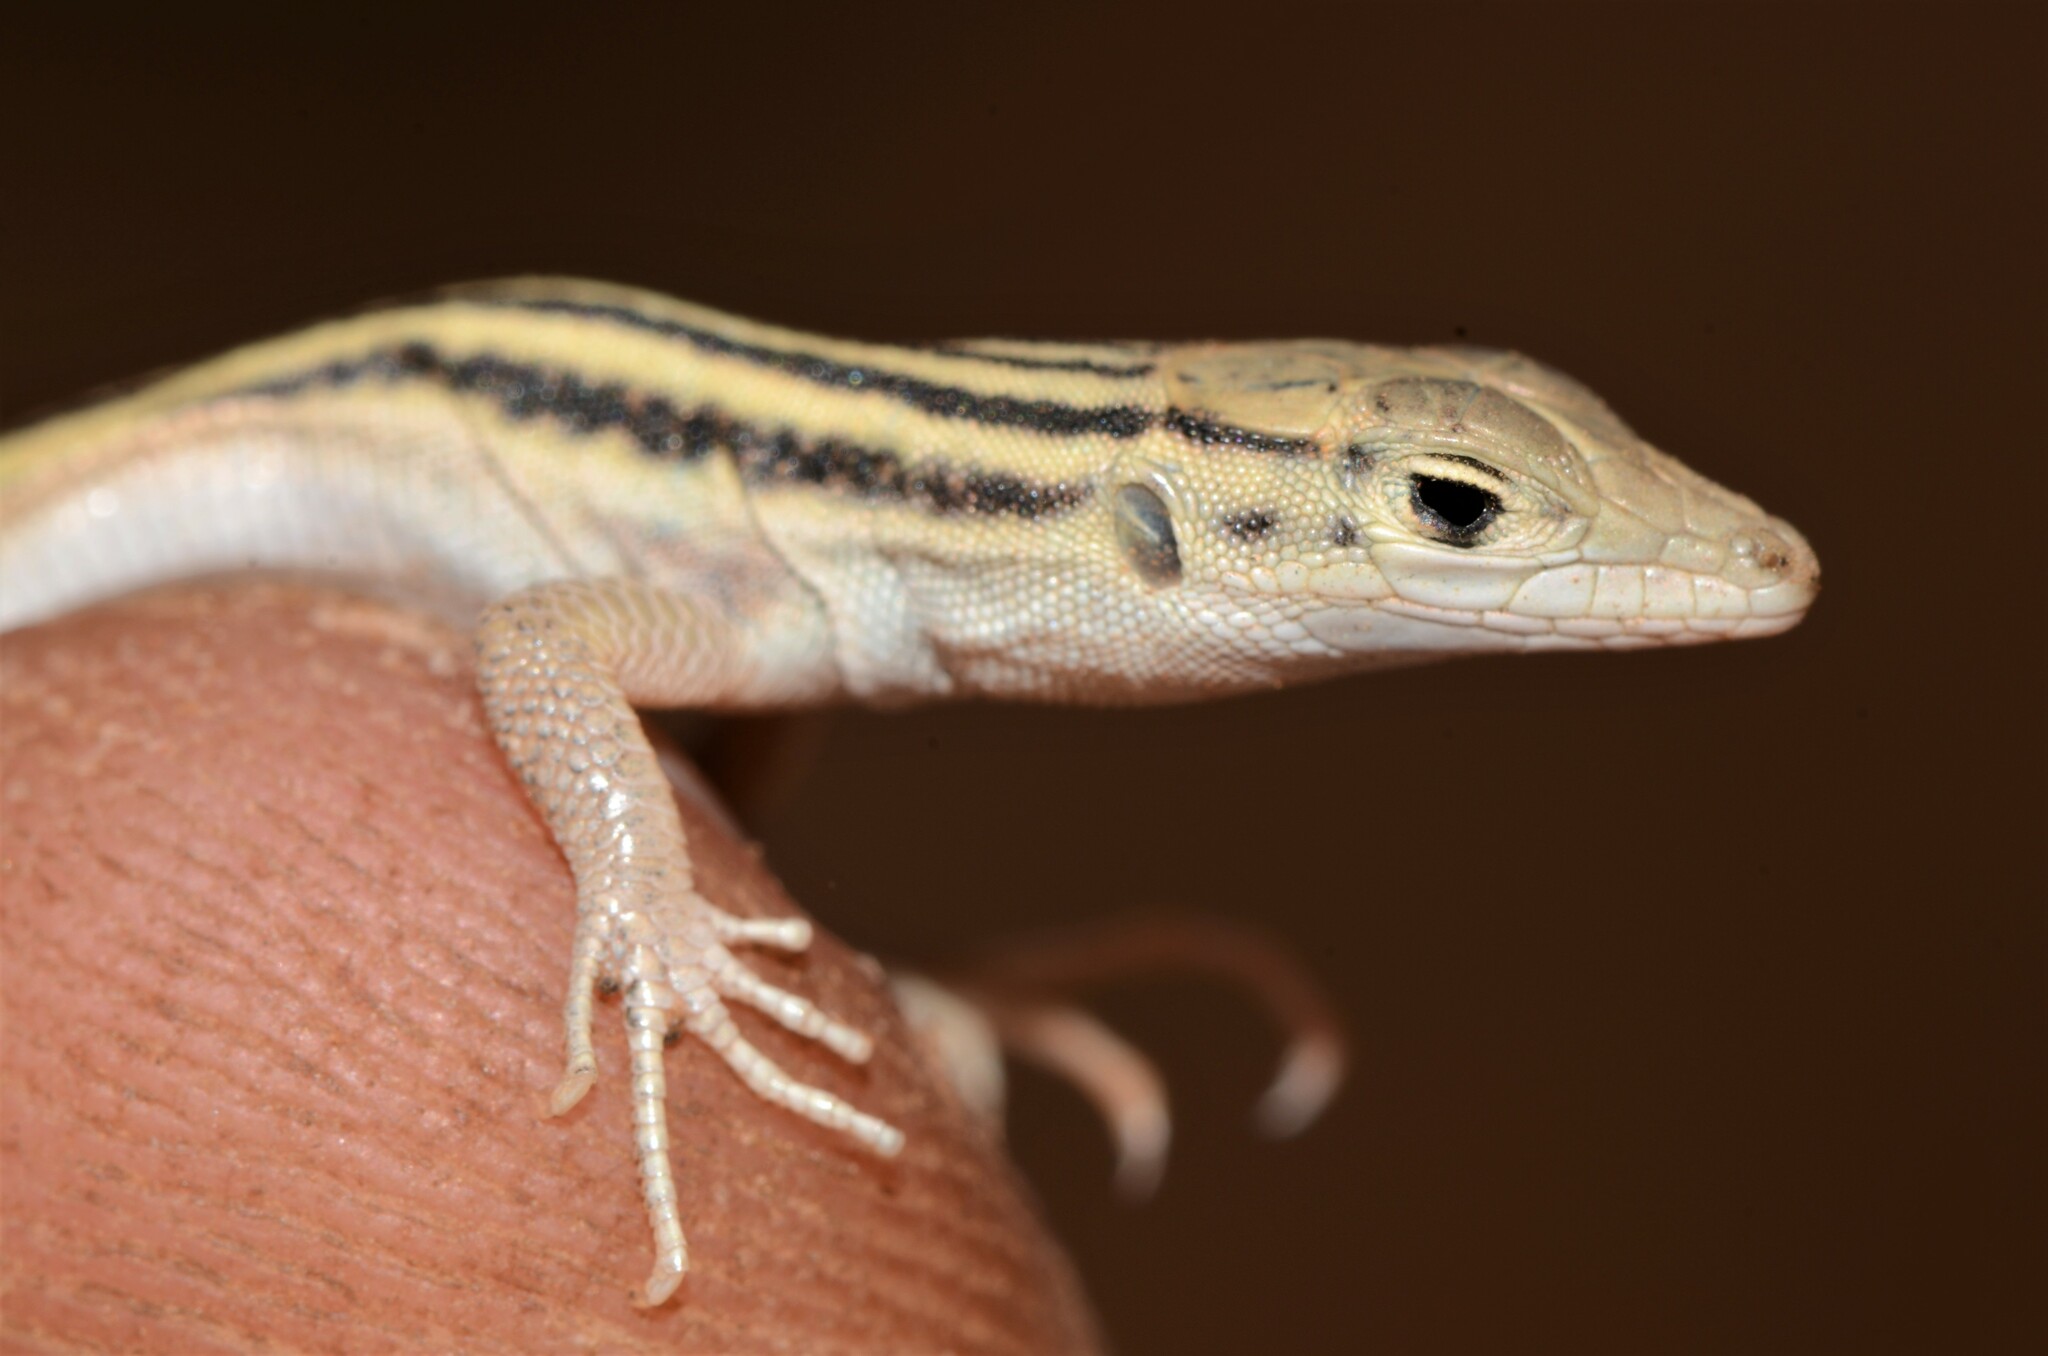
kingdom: Animalia
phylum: Chordata
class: Squamata
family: Lacertidae
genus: Pedioplanis
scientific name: Pedioplanis namaquensis
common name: Namaqua sand lizard
